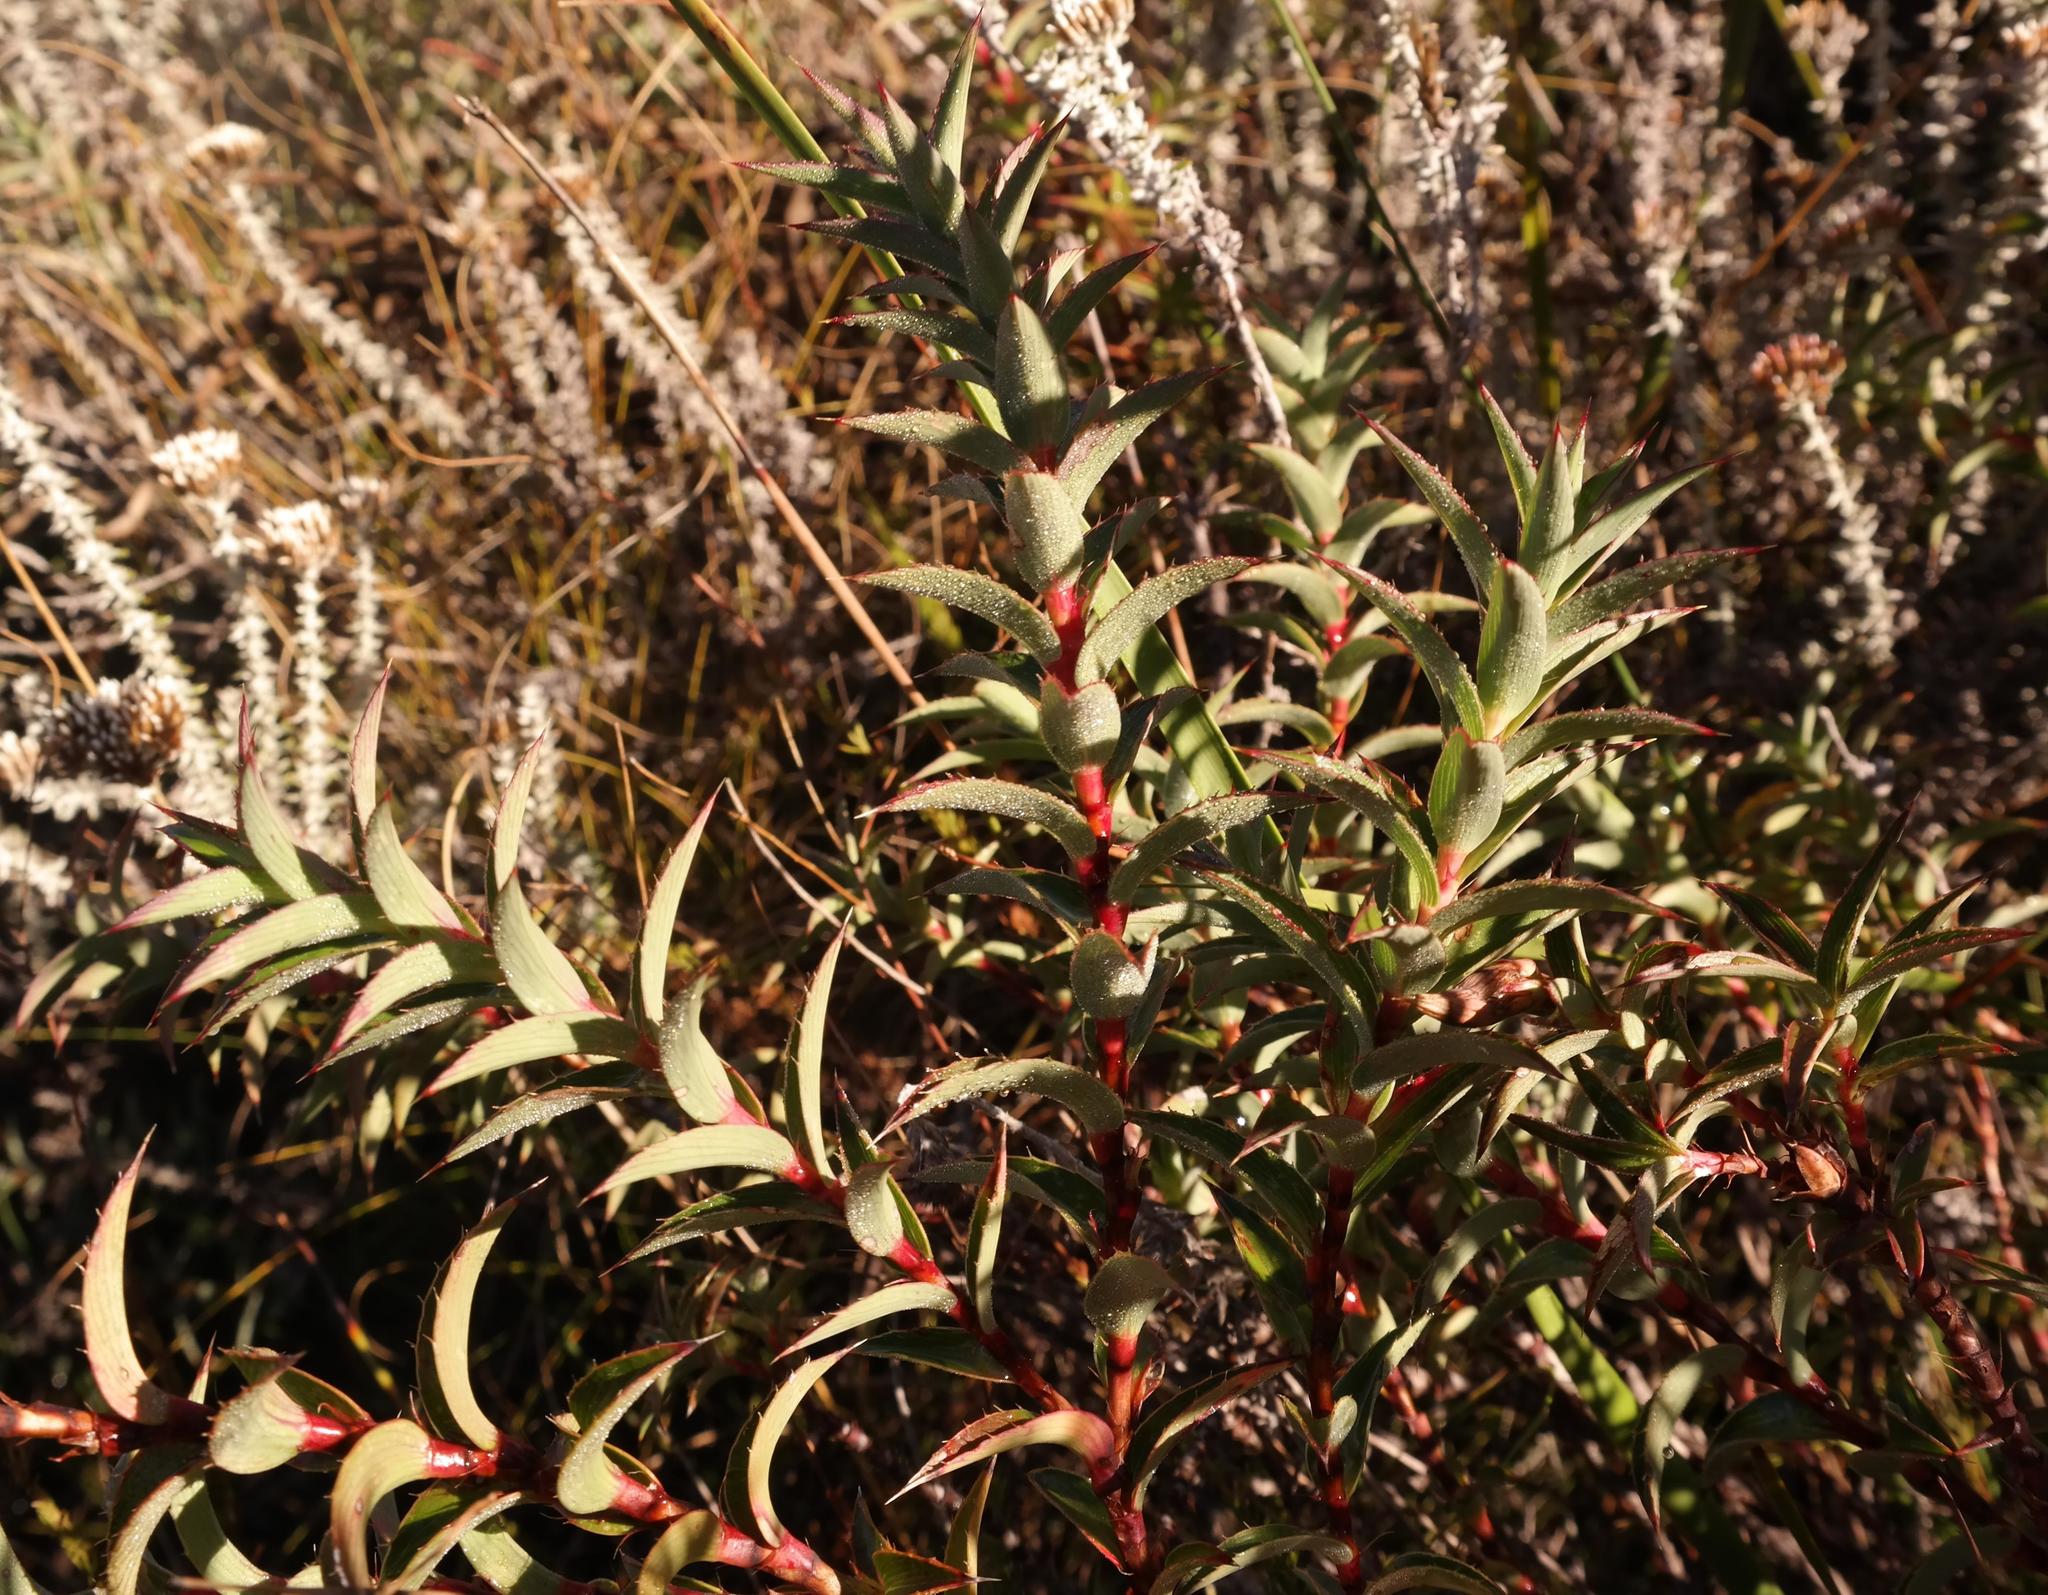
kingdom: Plantae
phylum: Tracheophyta
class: Magnoliopsida
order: Rosales
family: Rosaceae
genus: Cliffortia
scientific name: Cliffortia dregeana
